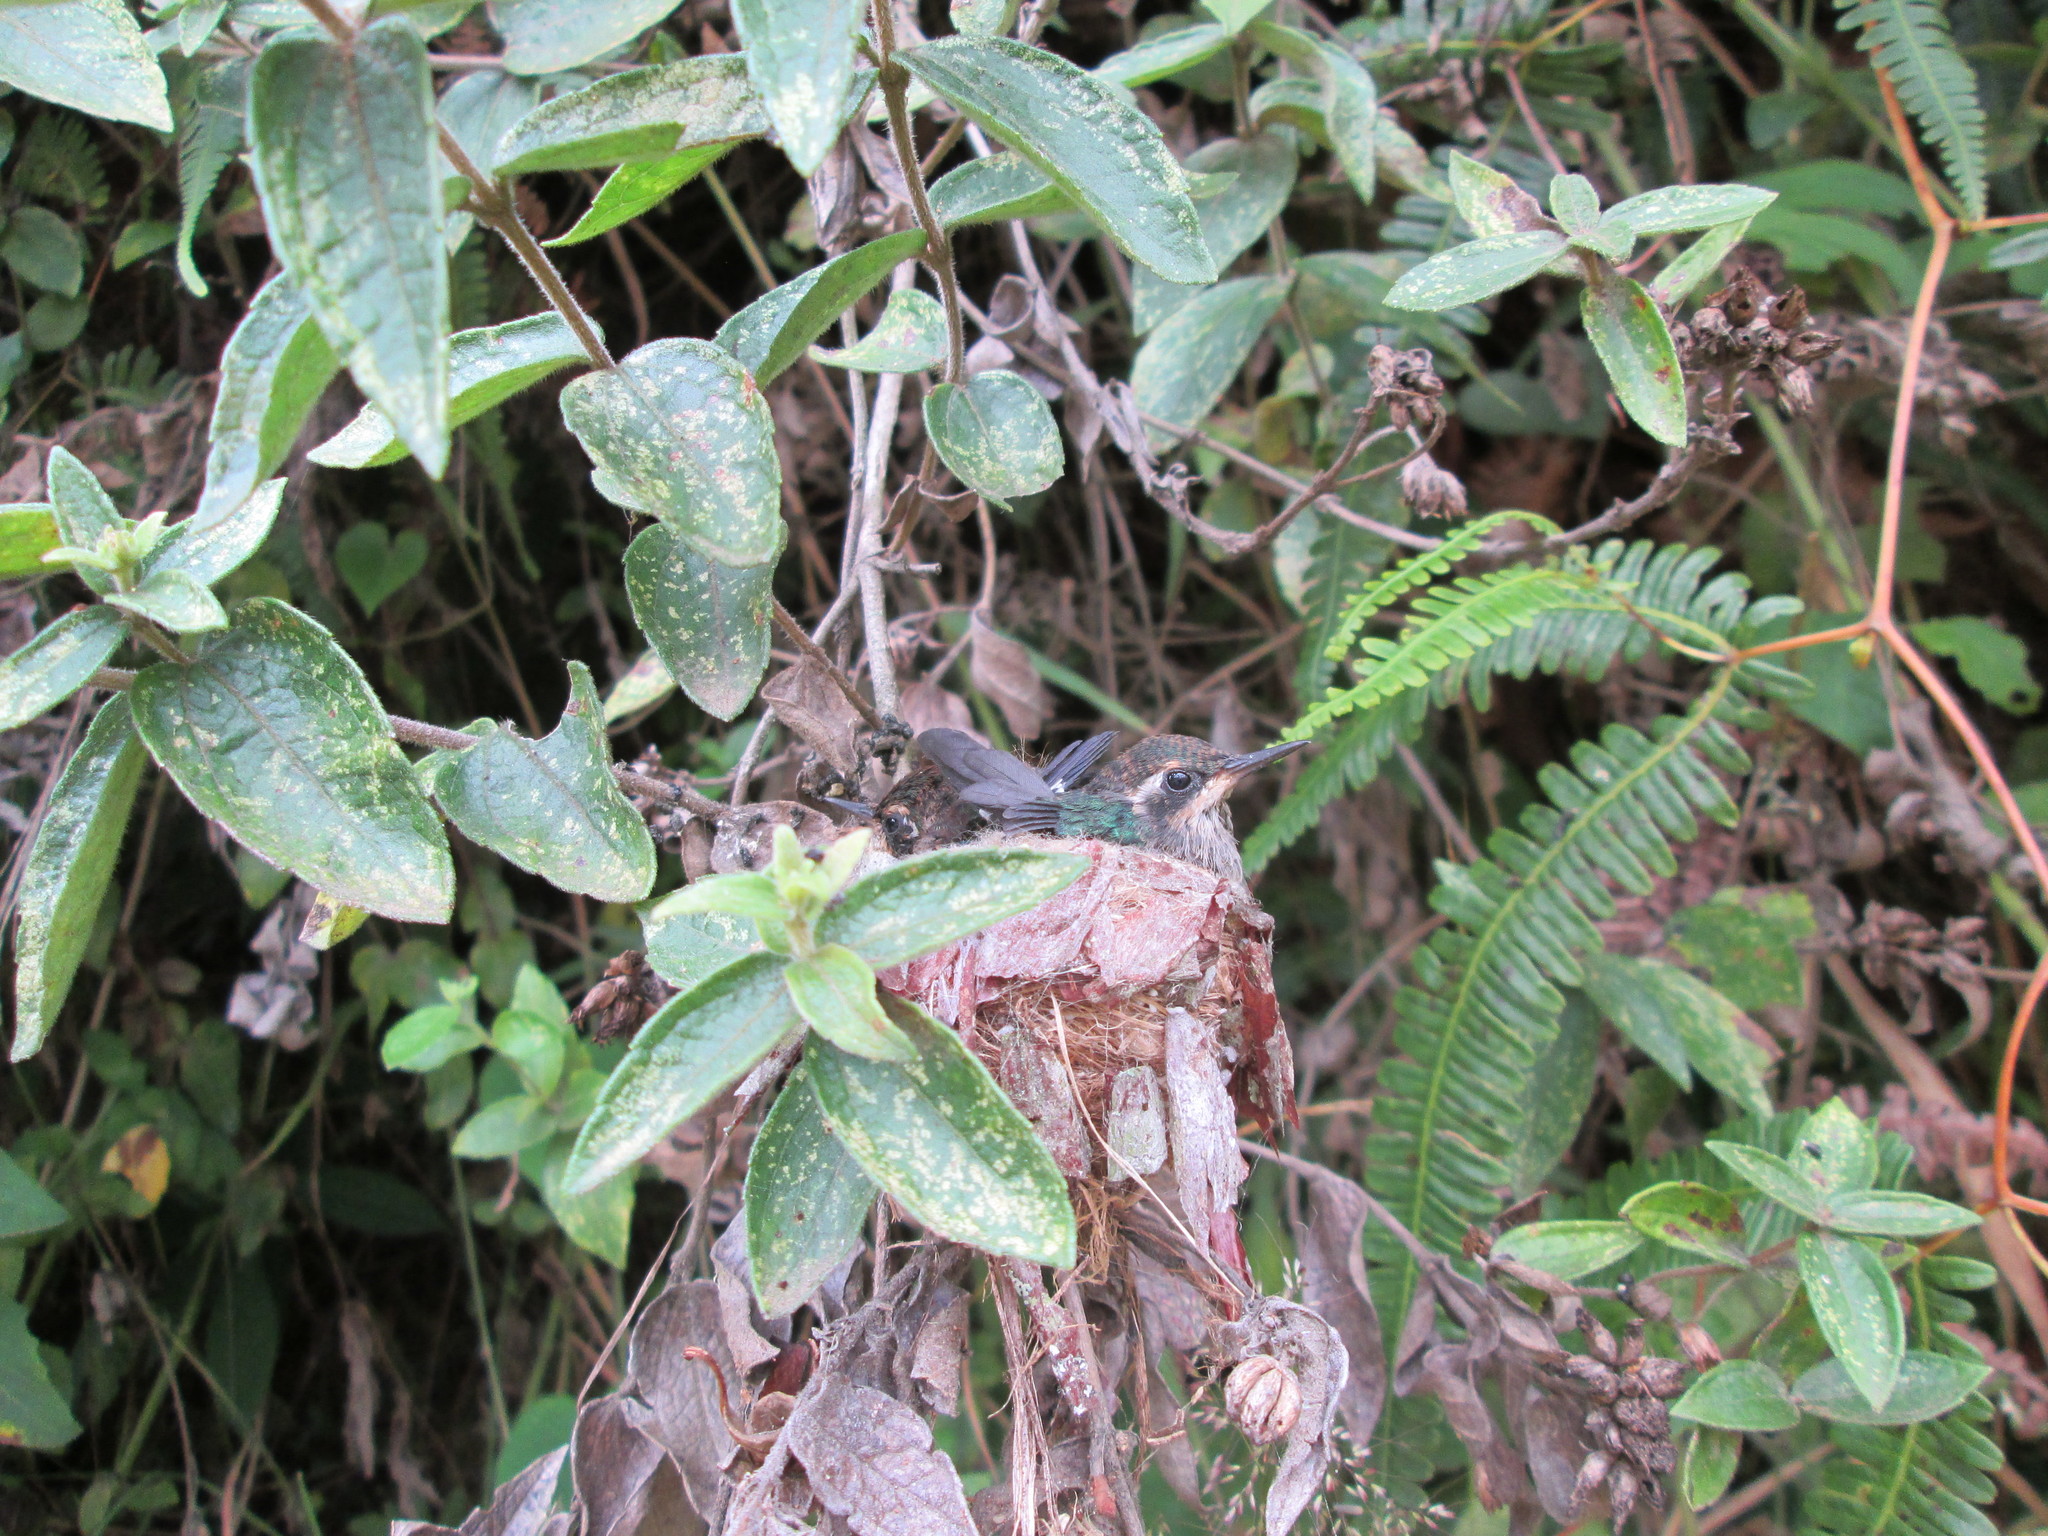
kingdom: Animalia
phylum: Chordata
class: Aves
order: Apodiformes
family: Trochilidae
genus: Adelomyia
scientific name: Adelomyia melanogenys
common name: Speckled hummingbird
